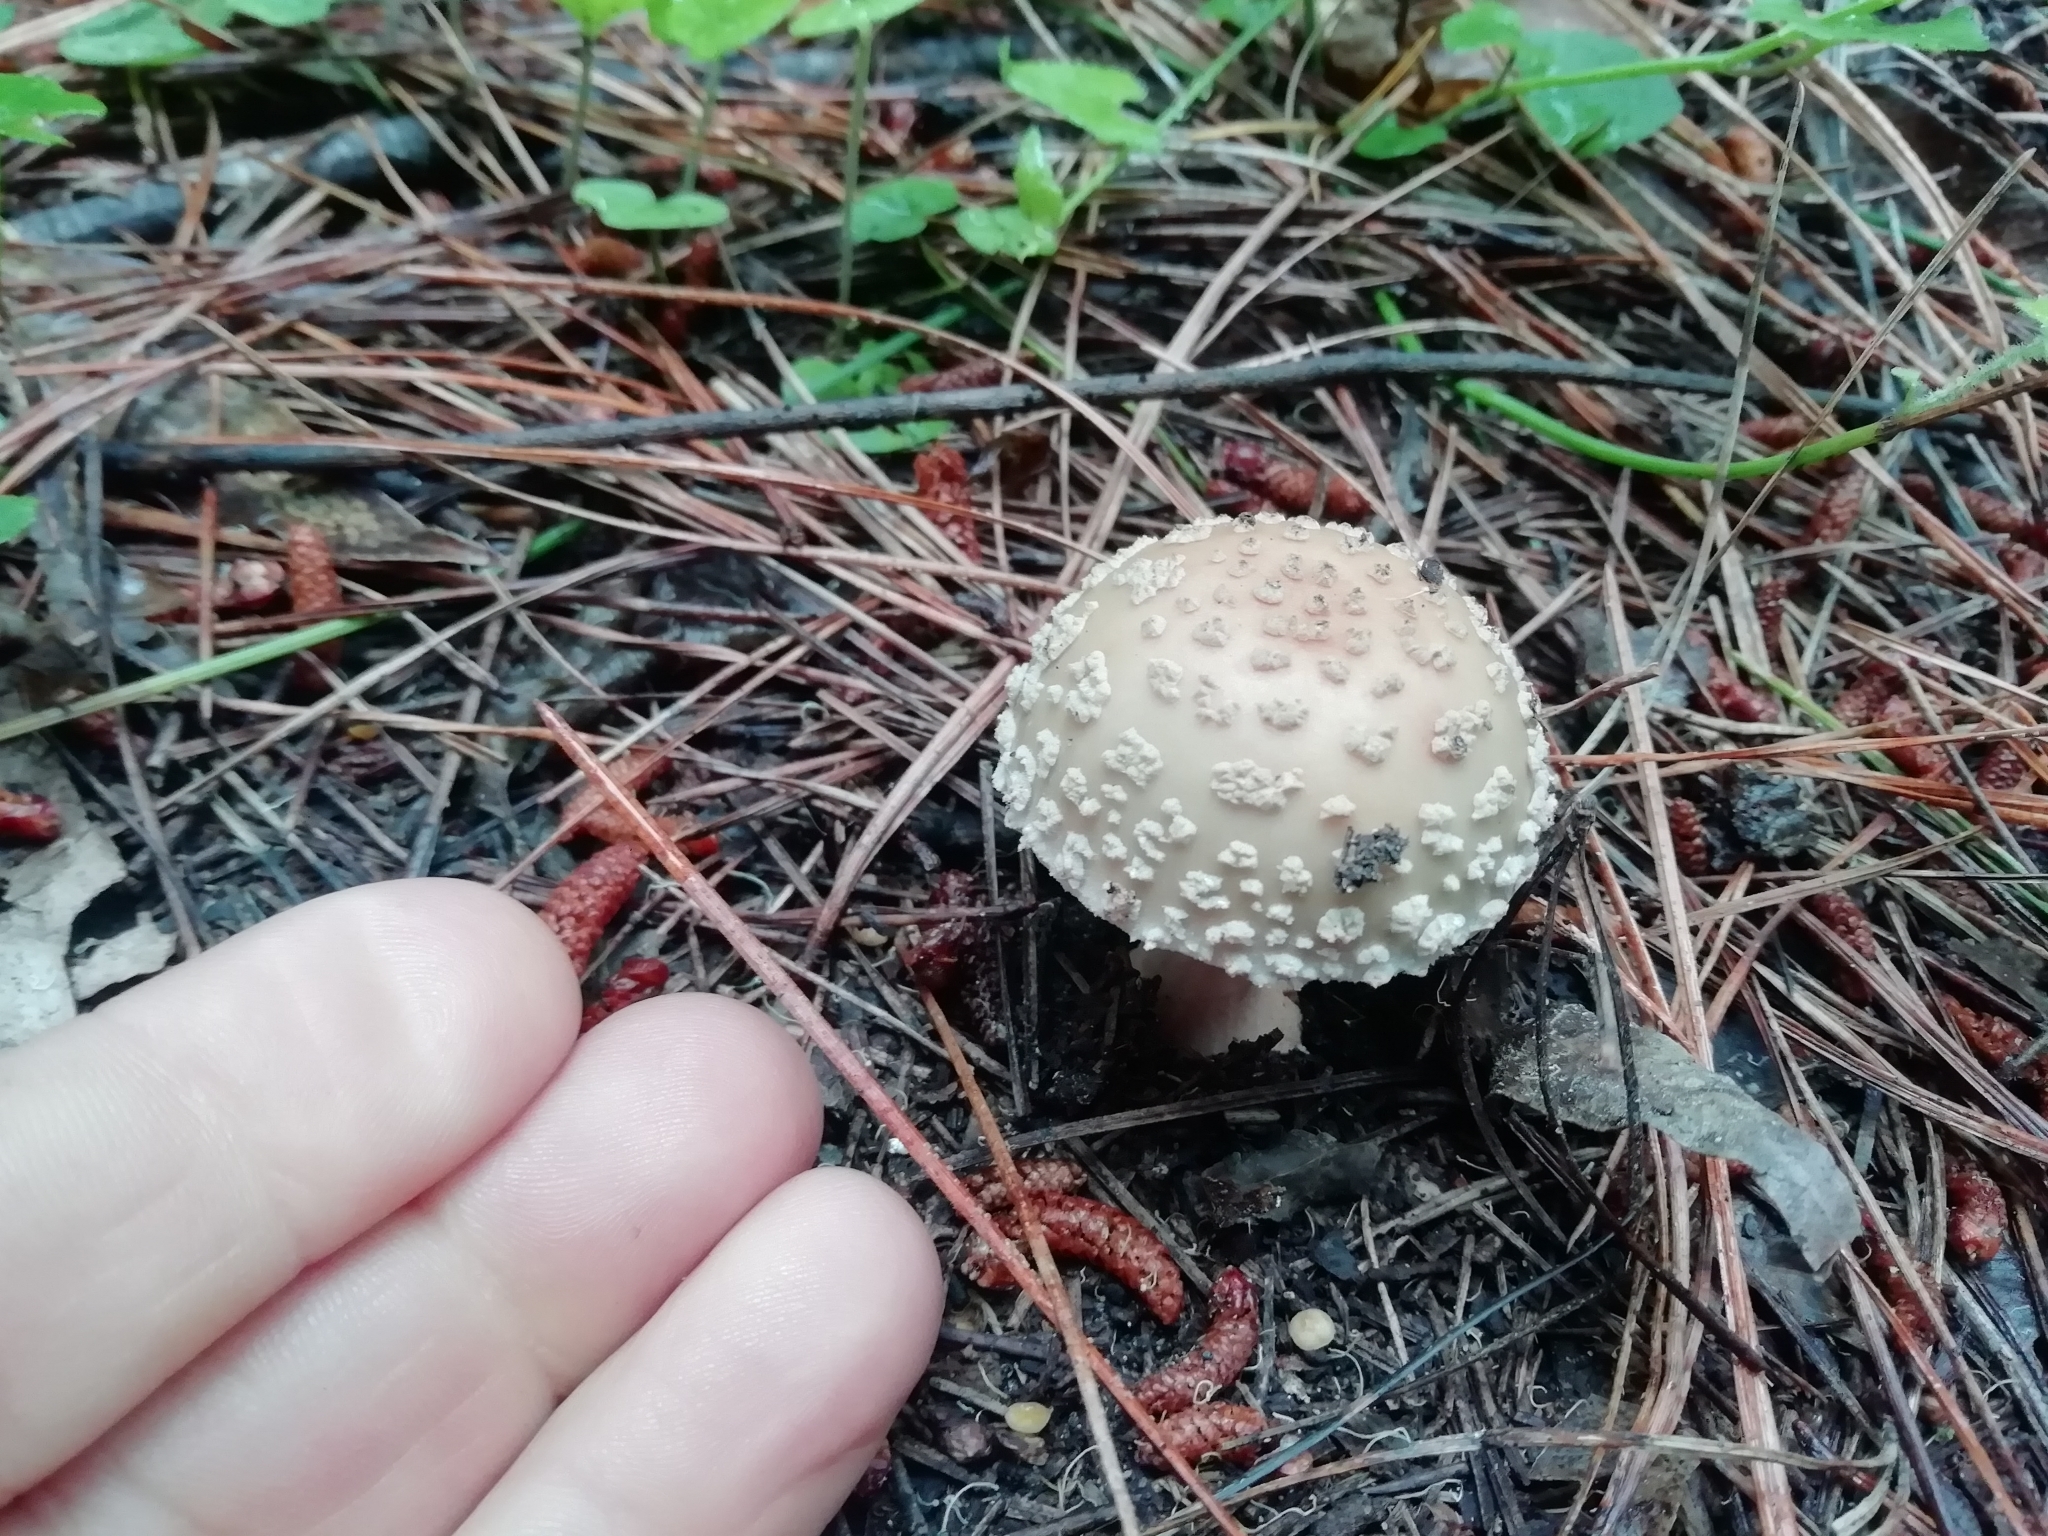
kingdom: Fungi
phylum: Basidiomycota
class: Agaricomycetes
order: Agaricales
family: Amanitaceae
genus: Amanita
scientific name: Amanita rubescens
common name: Blusher
